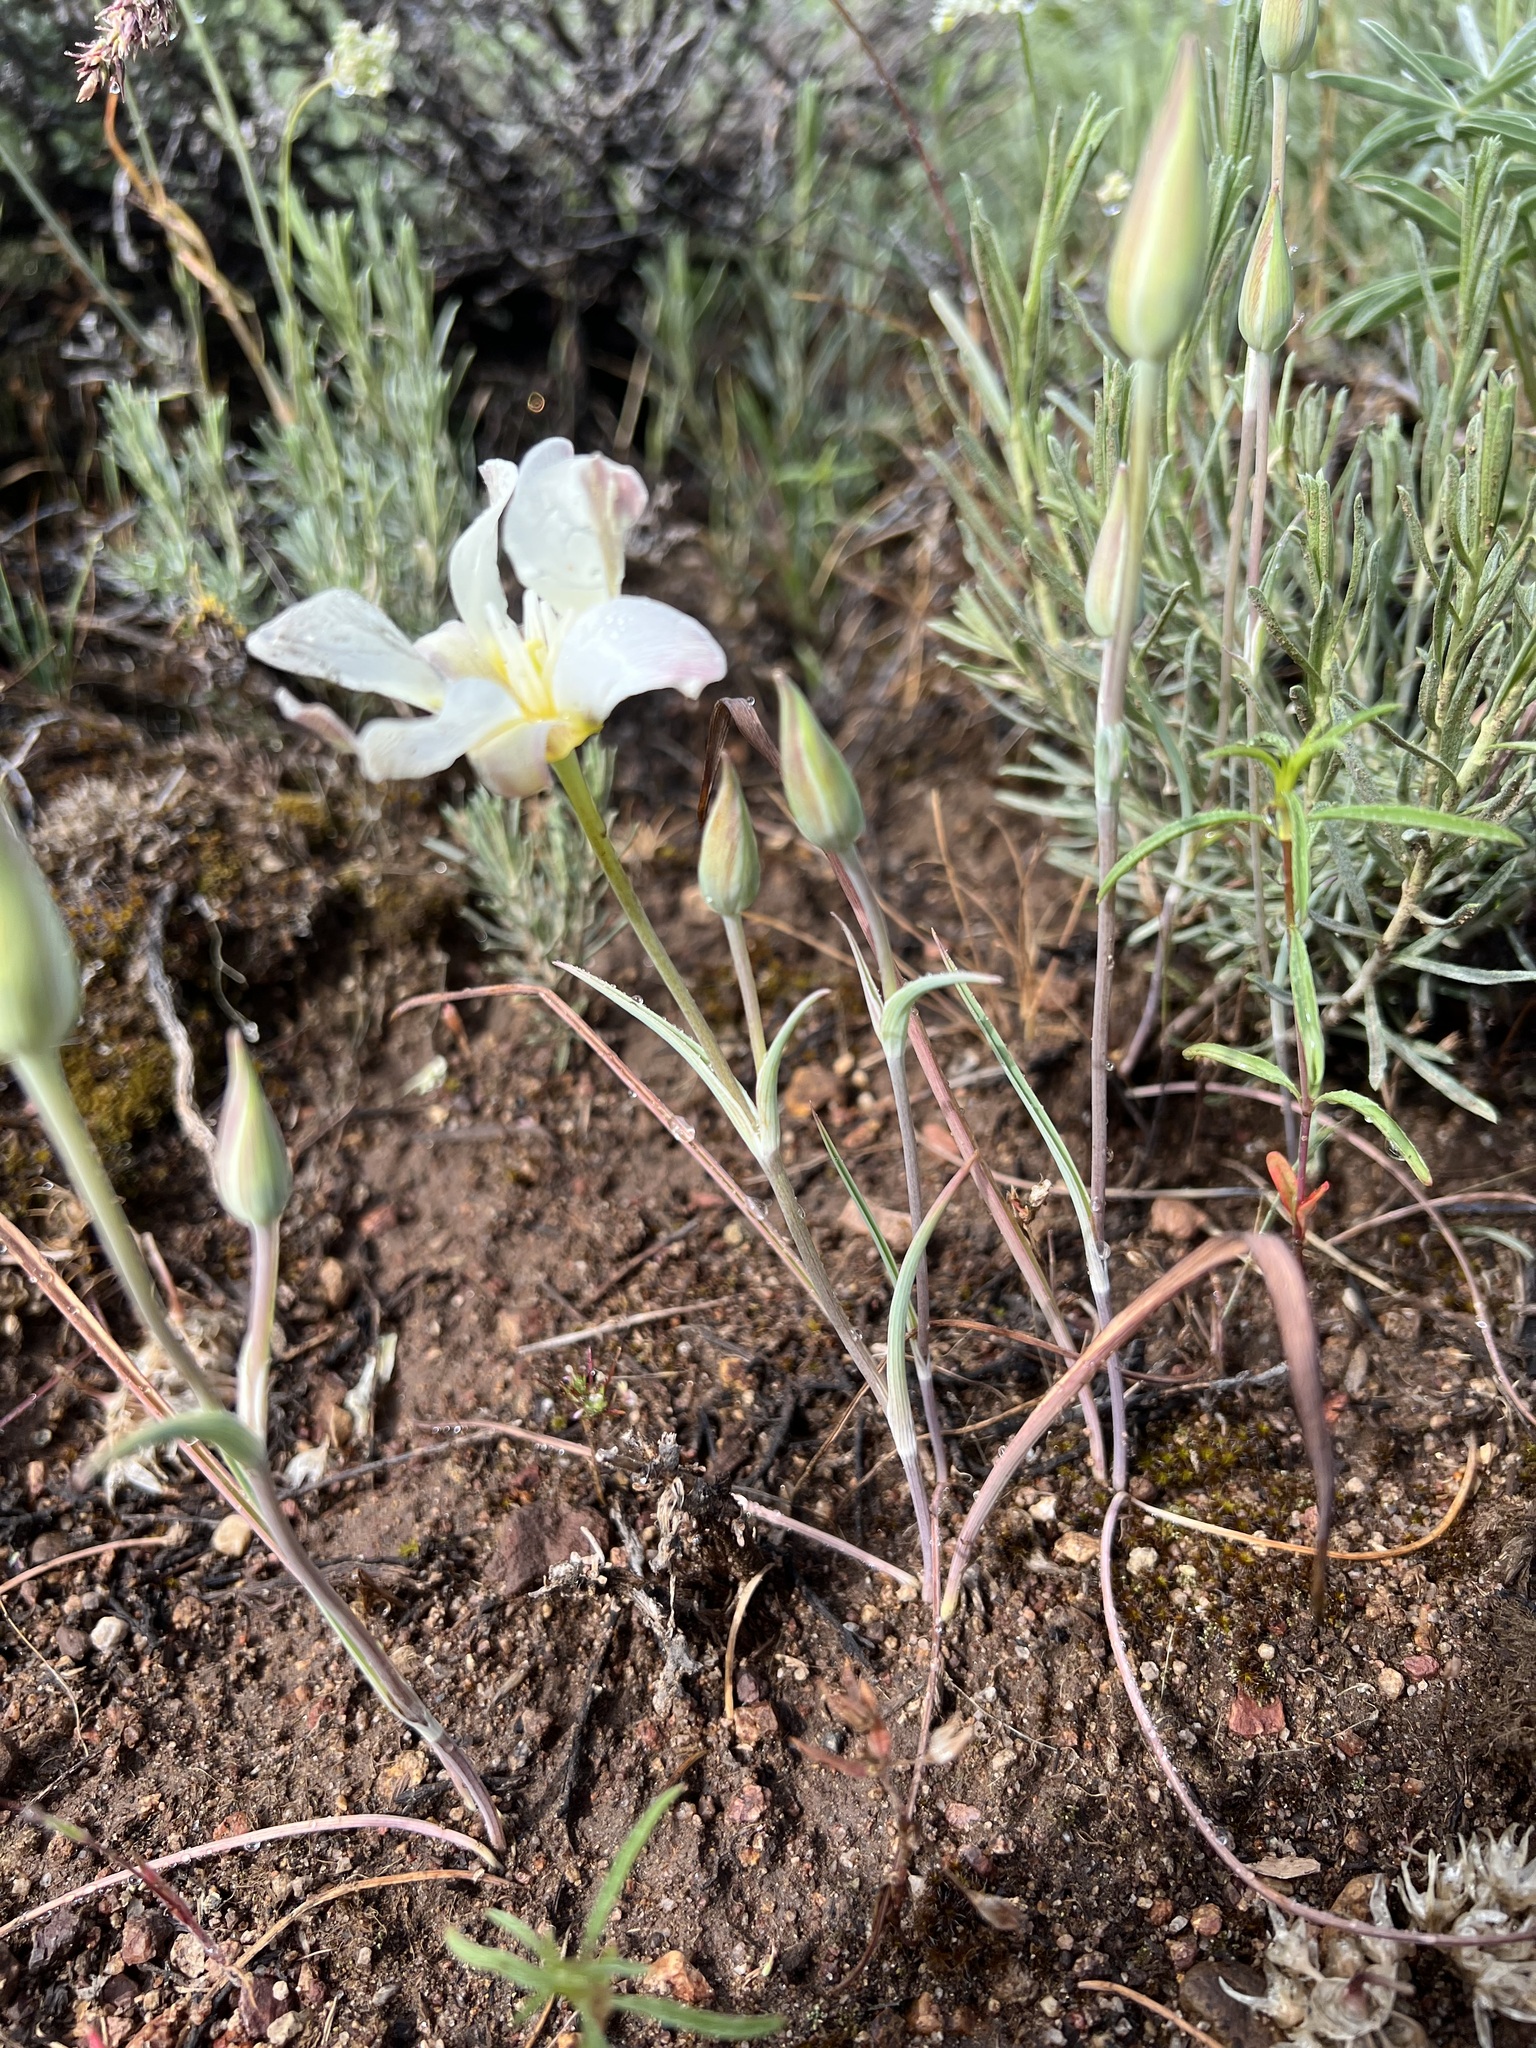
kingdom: Plantae
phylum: Tracheophyta
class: Liliopsida
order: Liliales
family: Liliaceae
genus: Calochortus
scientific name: Calochortus leichtlinii
